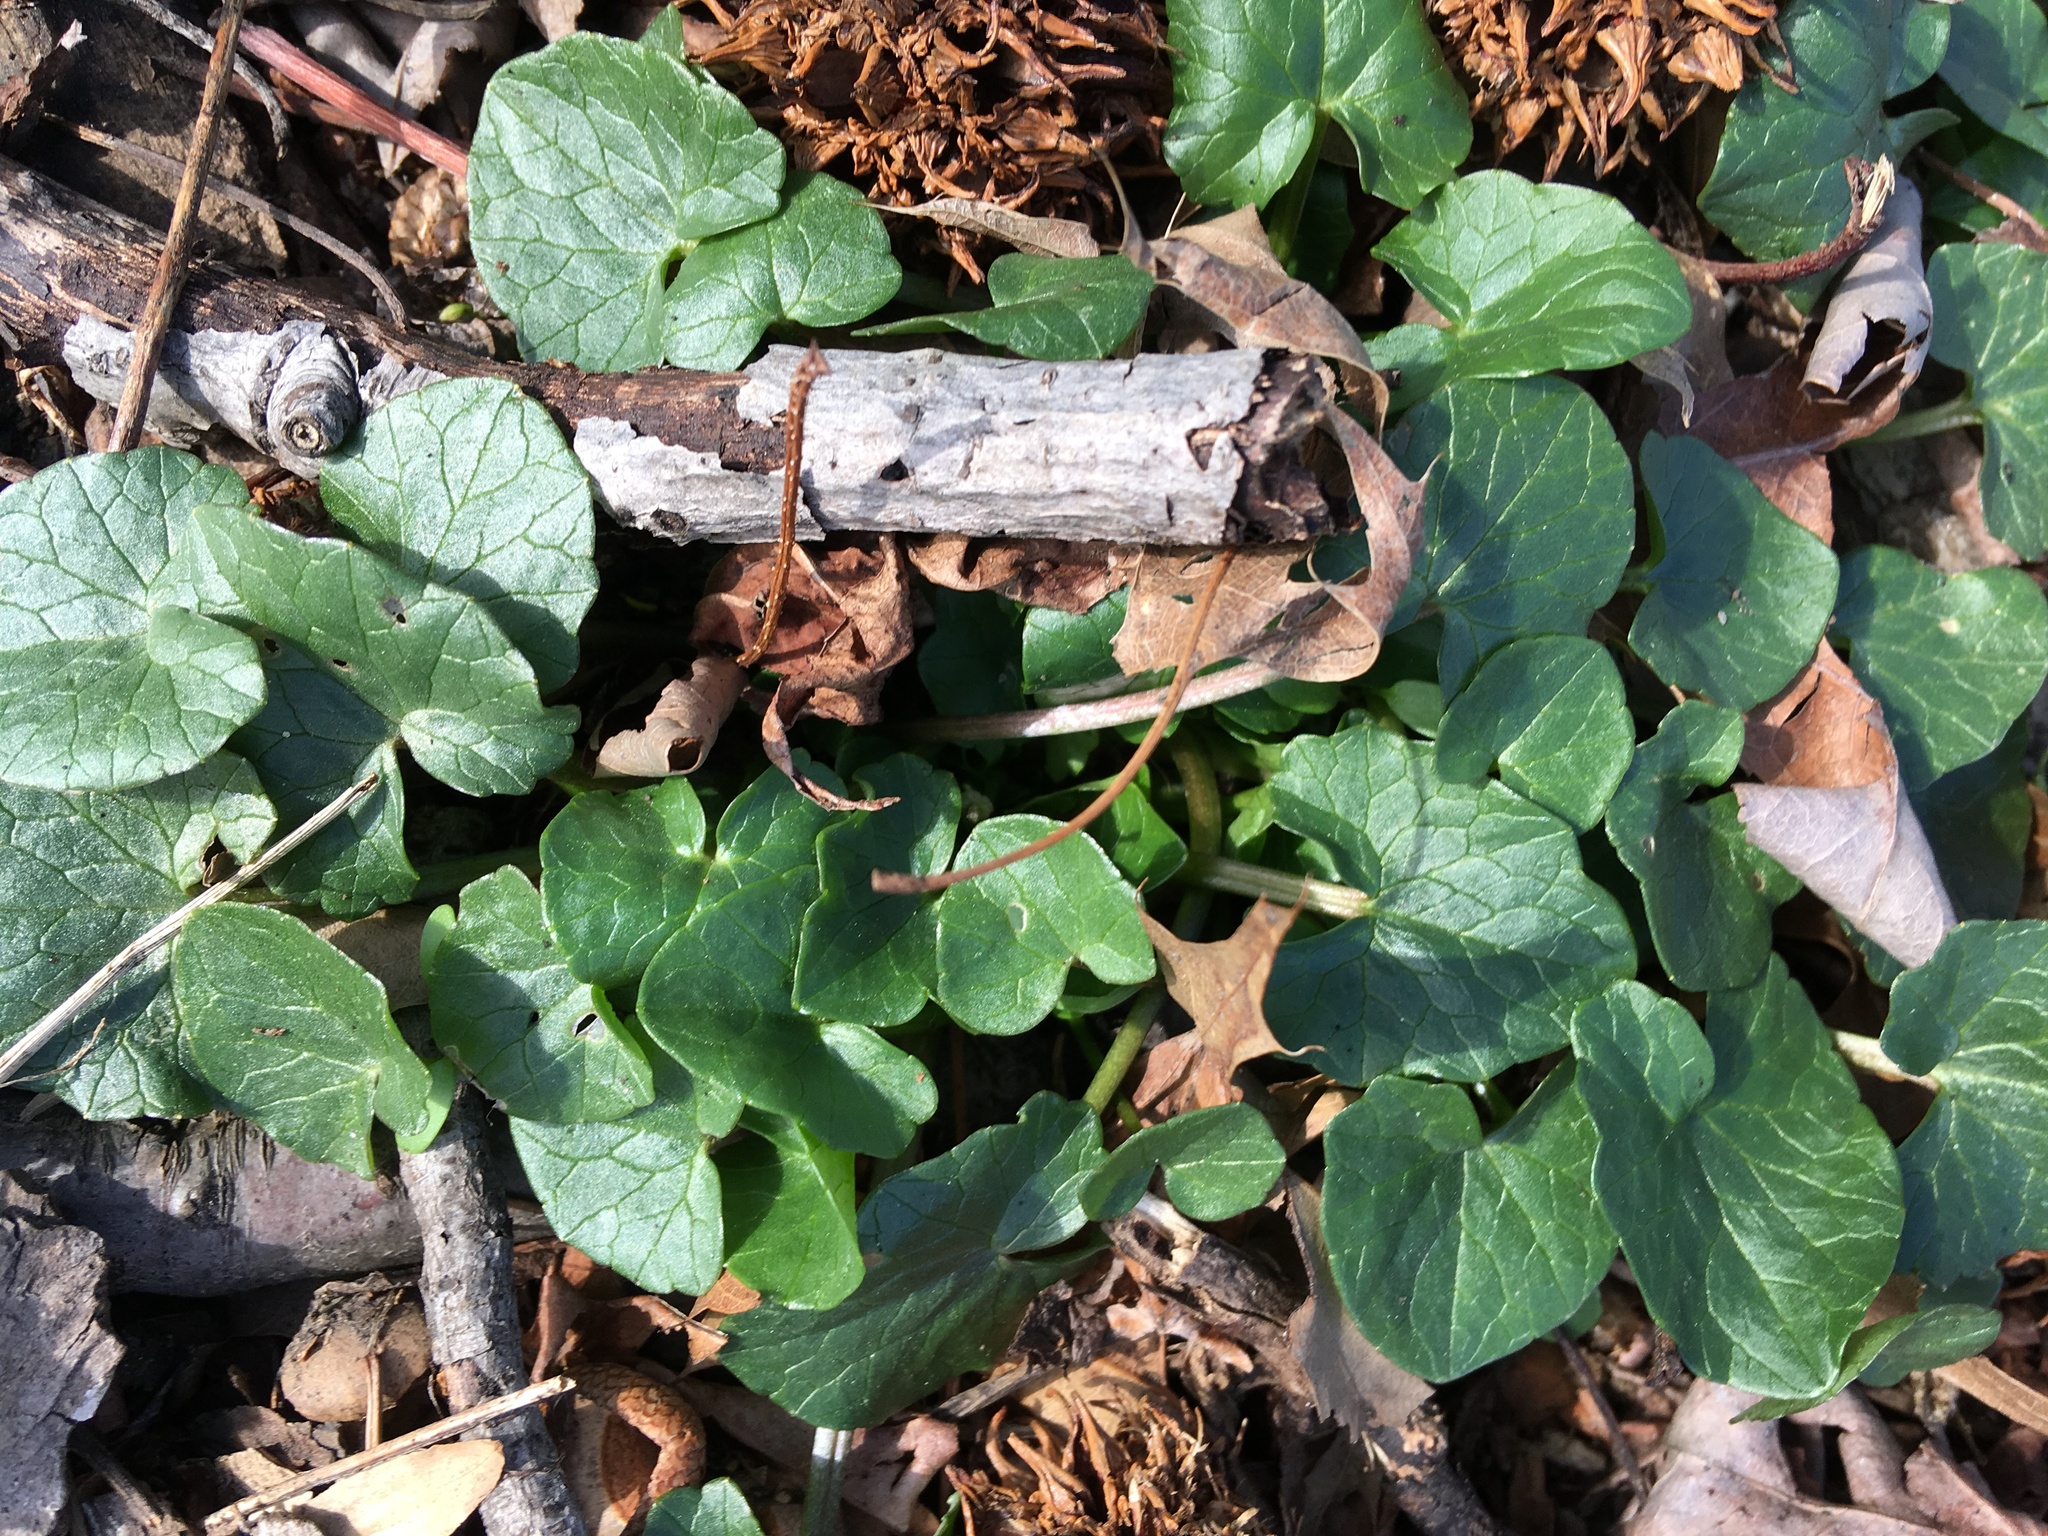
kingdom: Plantae
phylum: Tracheophyta
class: Magnoliopsida
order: Ranunculales
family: Ranunculaceae
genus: Ficaria
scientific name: Ficaria verna
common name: Lesser celandine
